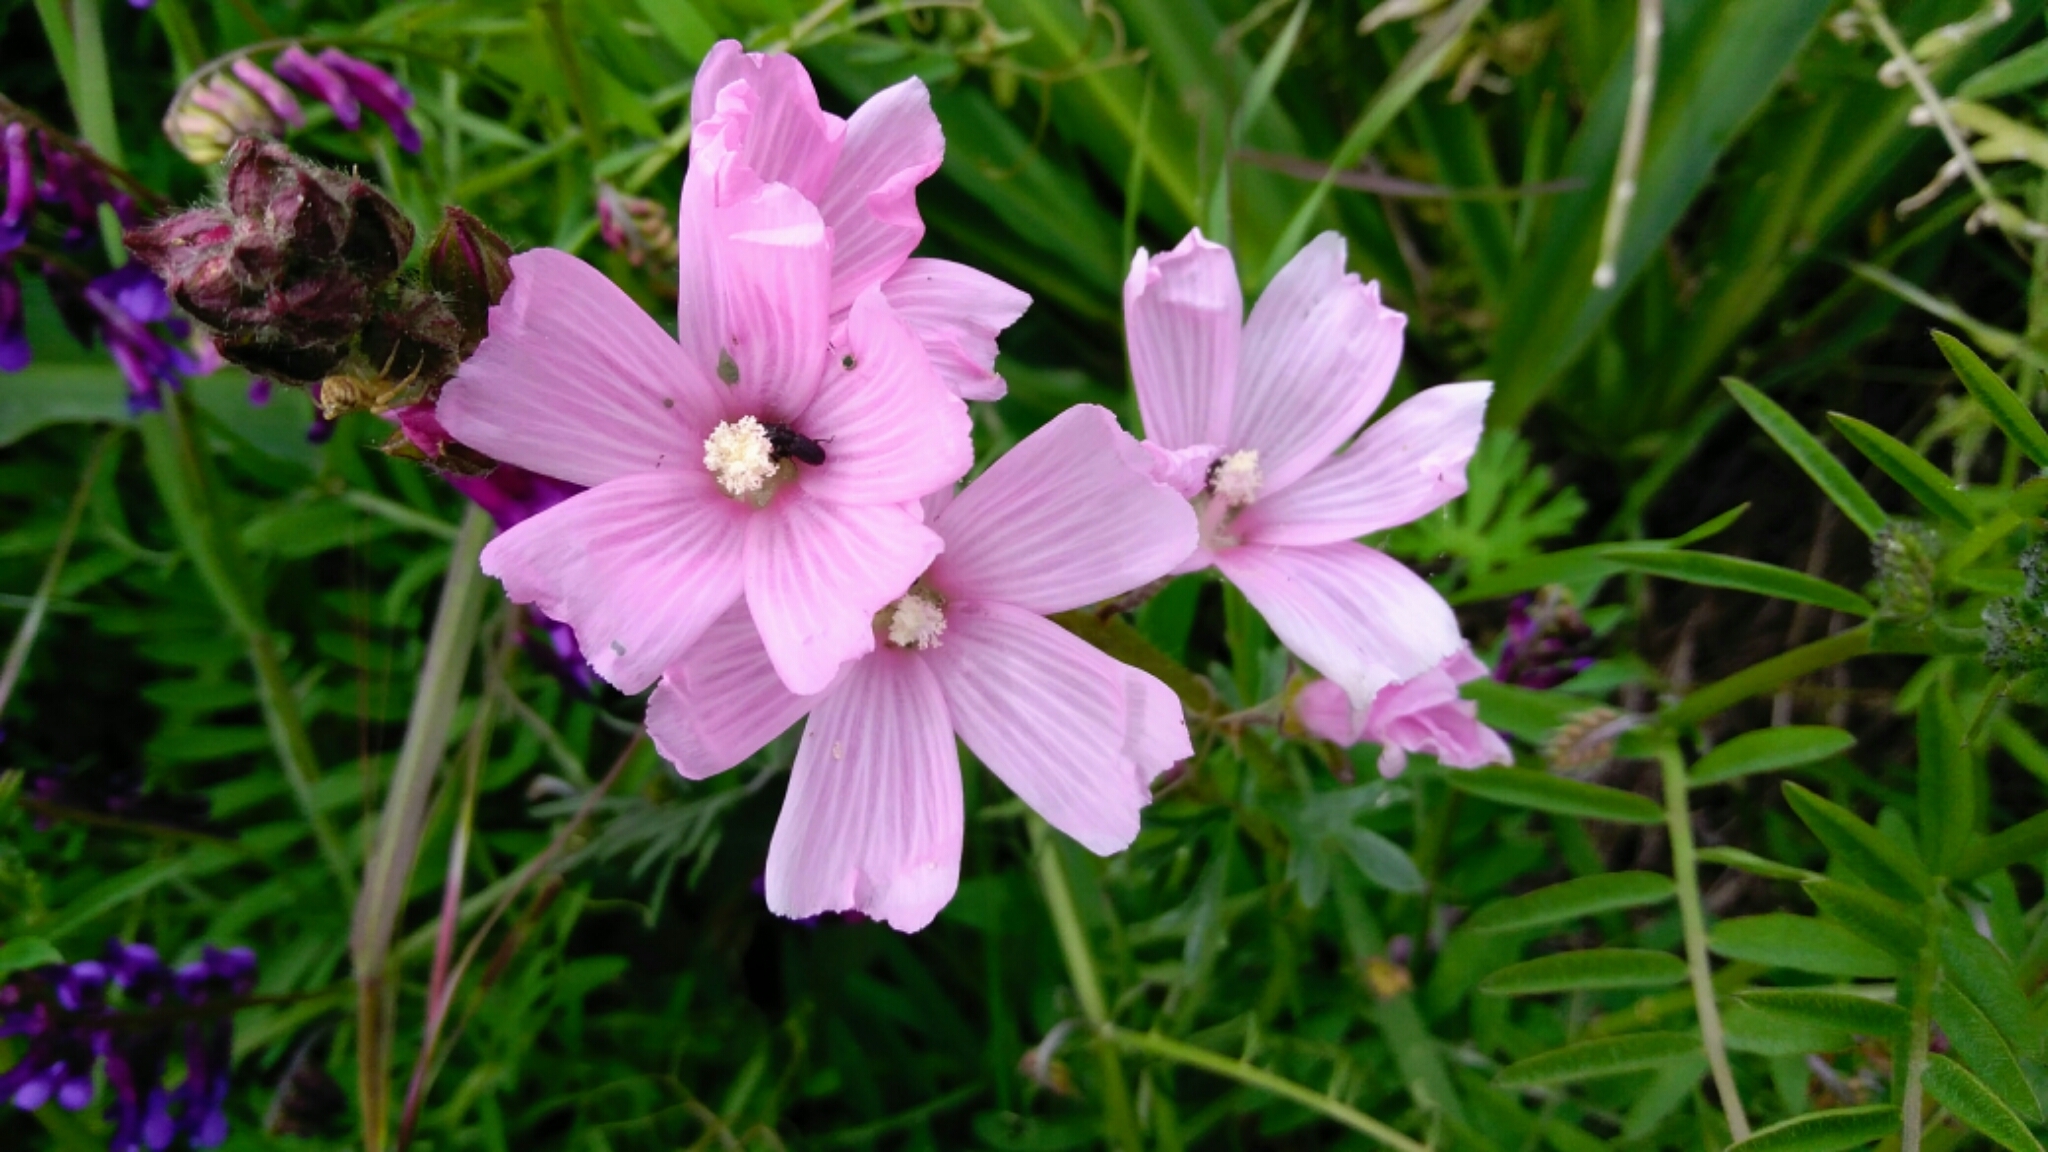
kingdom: Plantae
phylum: Tracheophyta
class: Magnoliopsida
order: Malvales
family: Malvaceae
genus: Sidalcea
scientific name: Sidalcea malviflora
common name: Greek mallow
